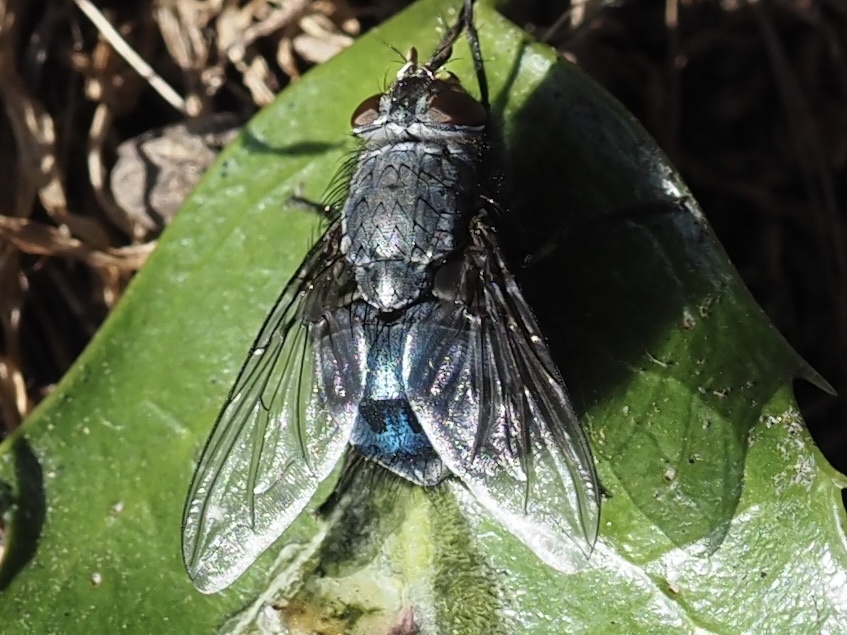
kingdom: Animalia
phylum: Arthropoda
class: Insecta
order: Diptera
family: Calliphoridae
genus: Calliphora
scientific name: Calliphora vicina
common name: Common blow flie
